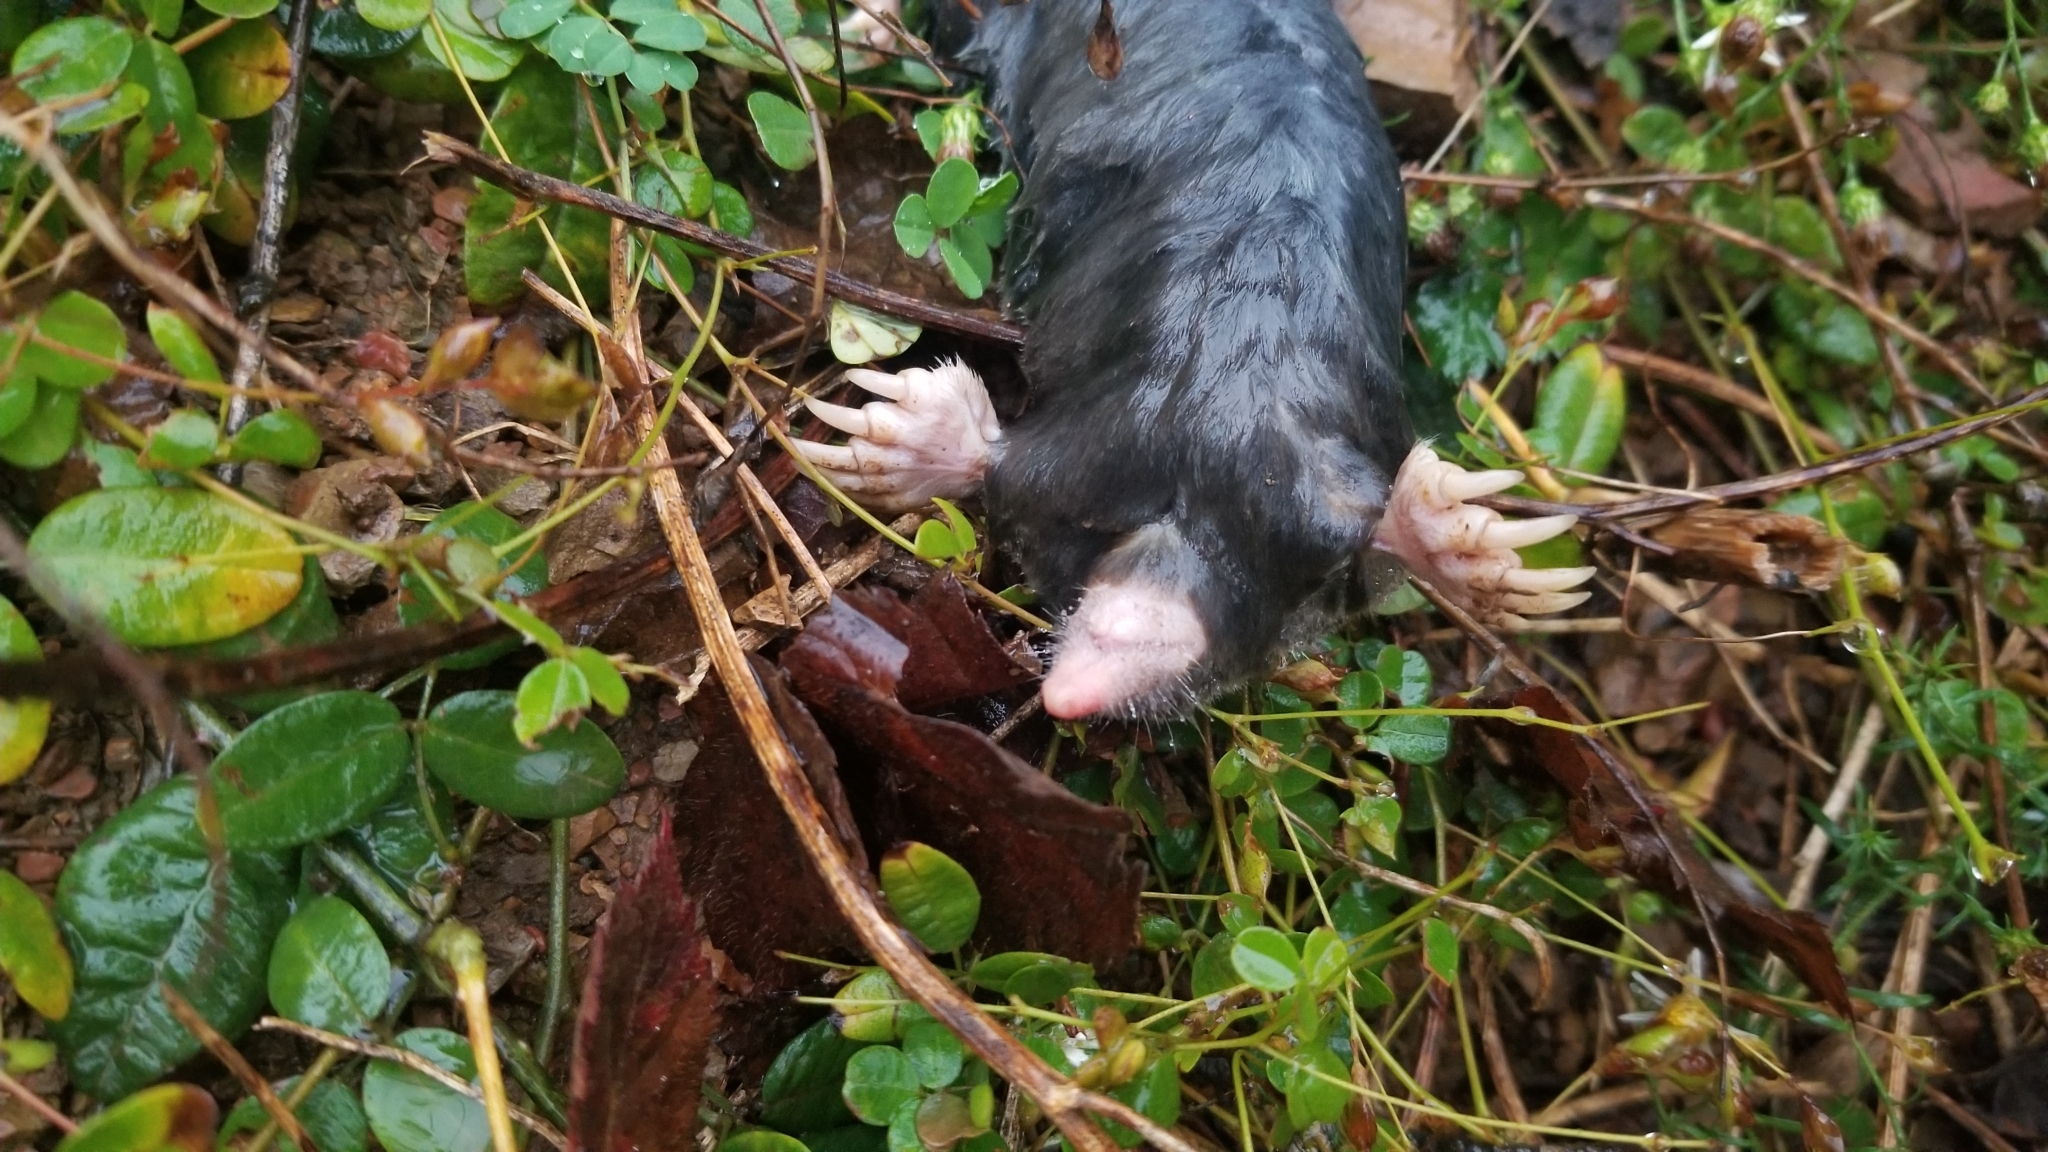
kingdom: Animalia
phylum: Chordata
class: Mammalia
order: Soricomorpha
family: Talpidae
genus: Parascalops
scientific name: Parascalops breweri
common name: Hairy-tailed mole
